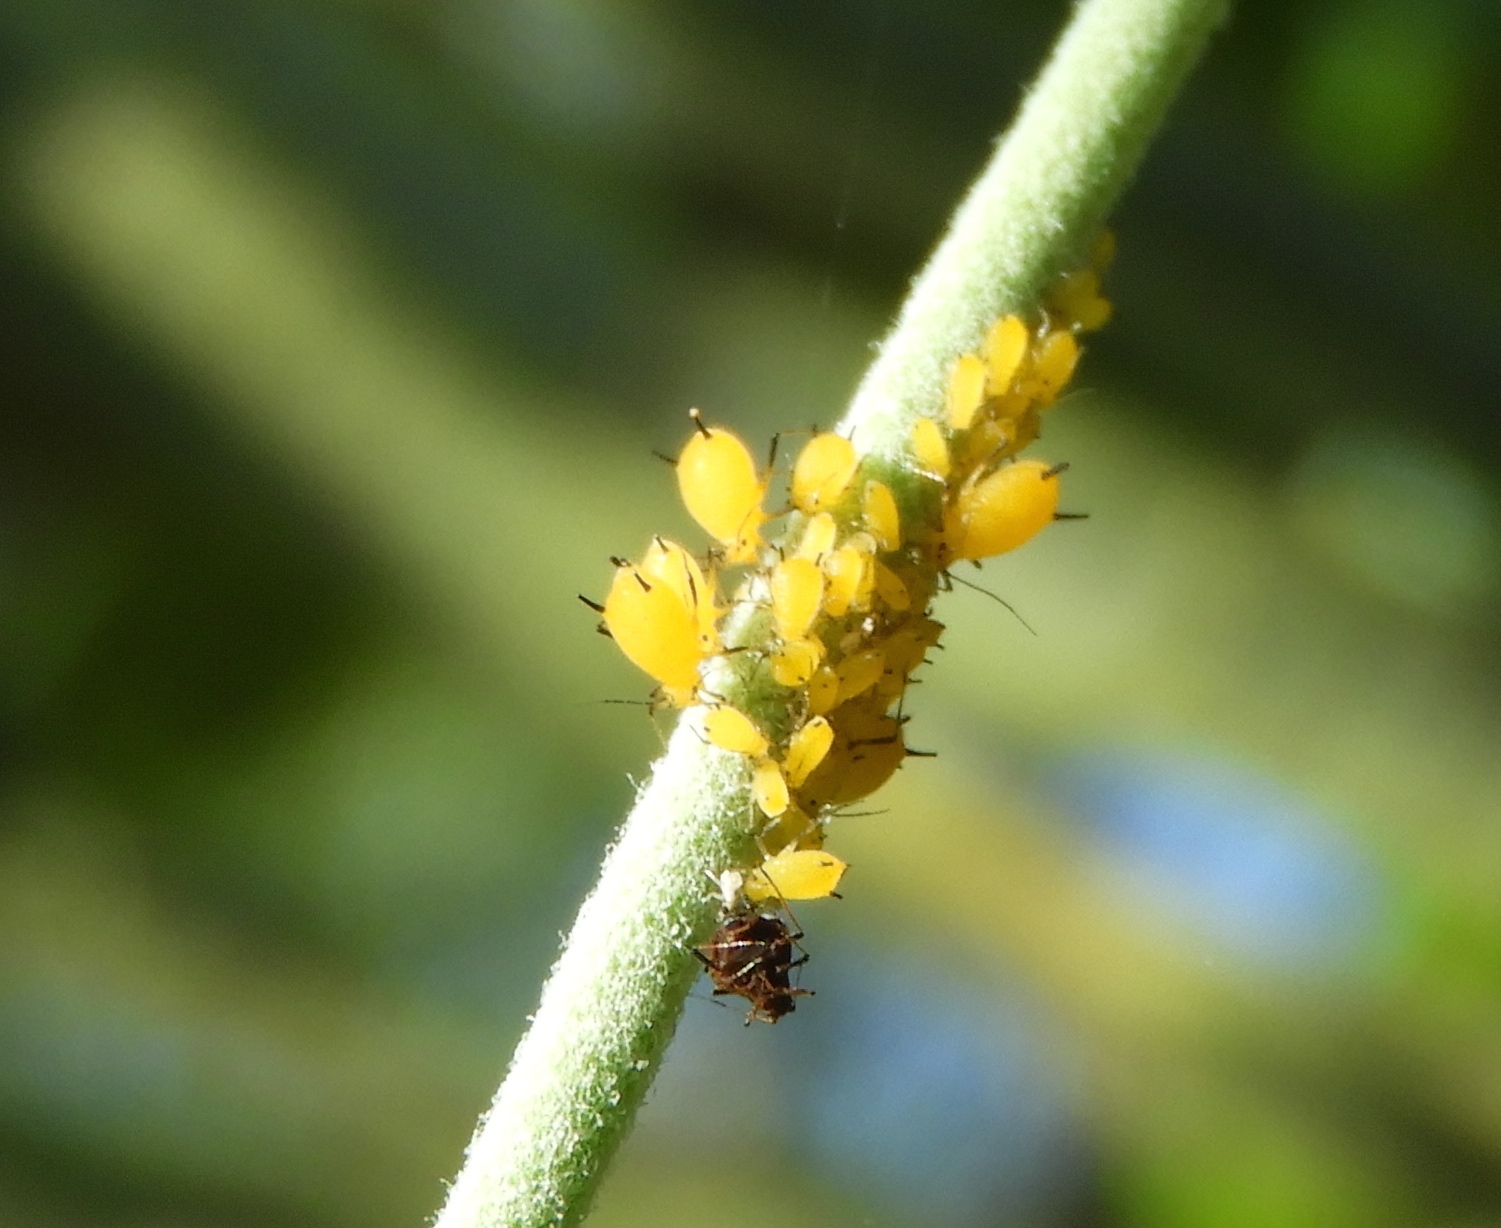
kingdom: Animalia
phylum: Arthropoda
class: Insecta
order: Hemiptera
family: Aphididae
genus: Aphis
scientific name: Aphis nerii
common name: Oleander aphid
